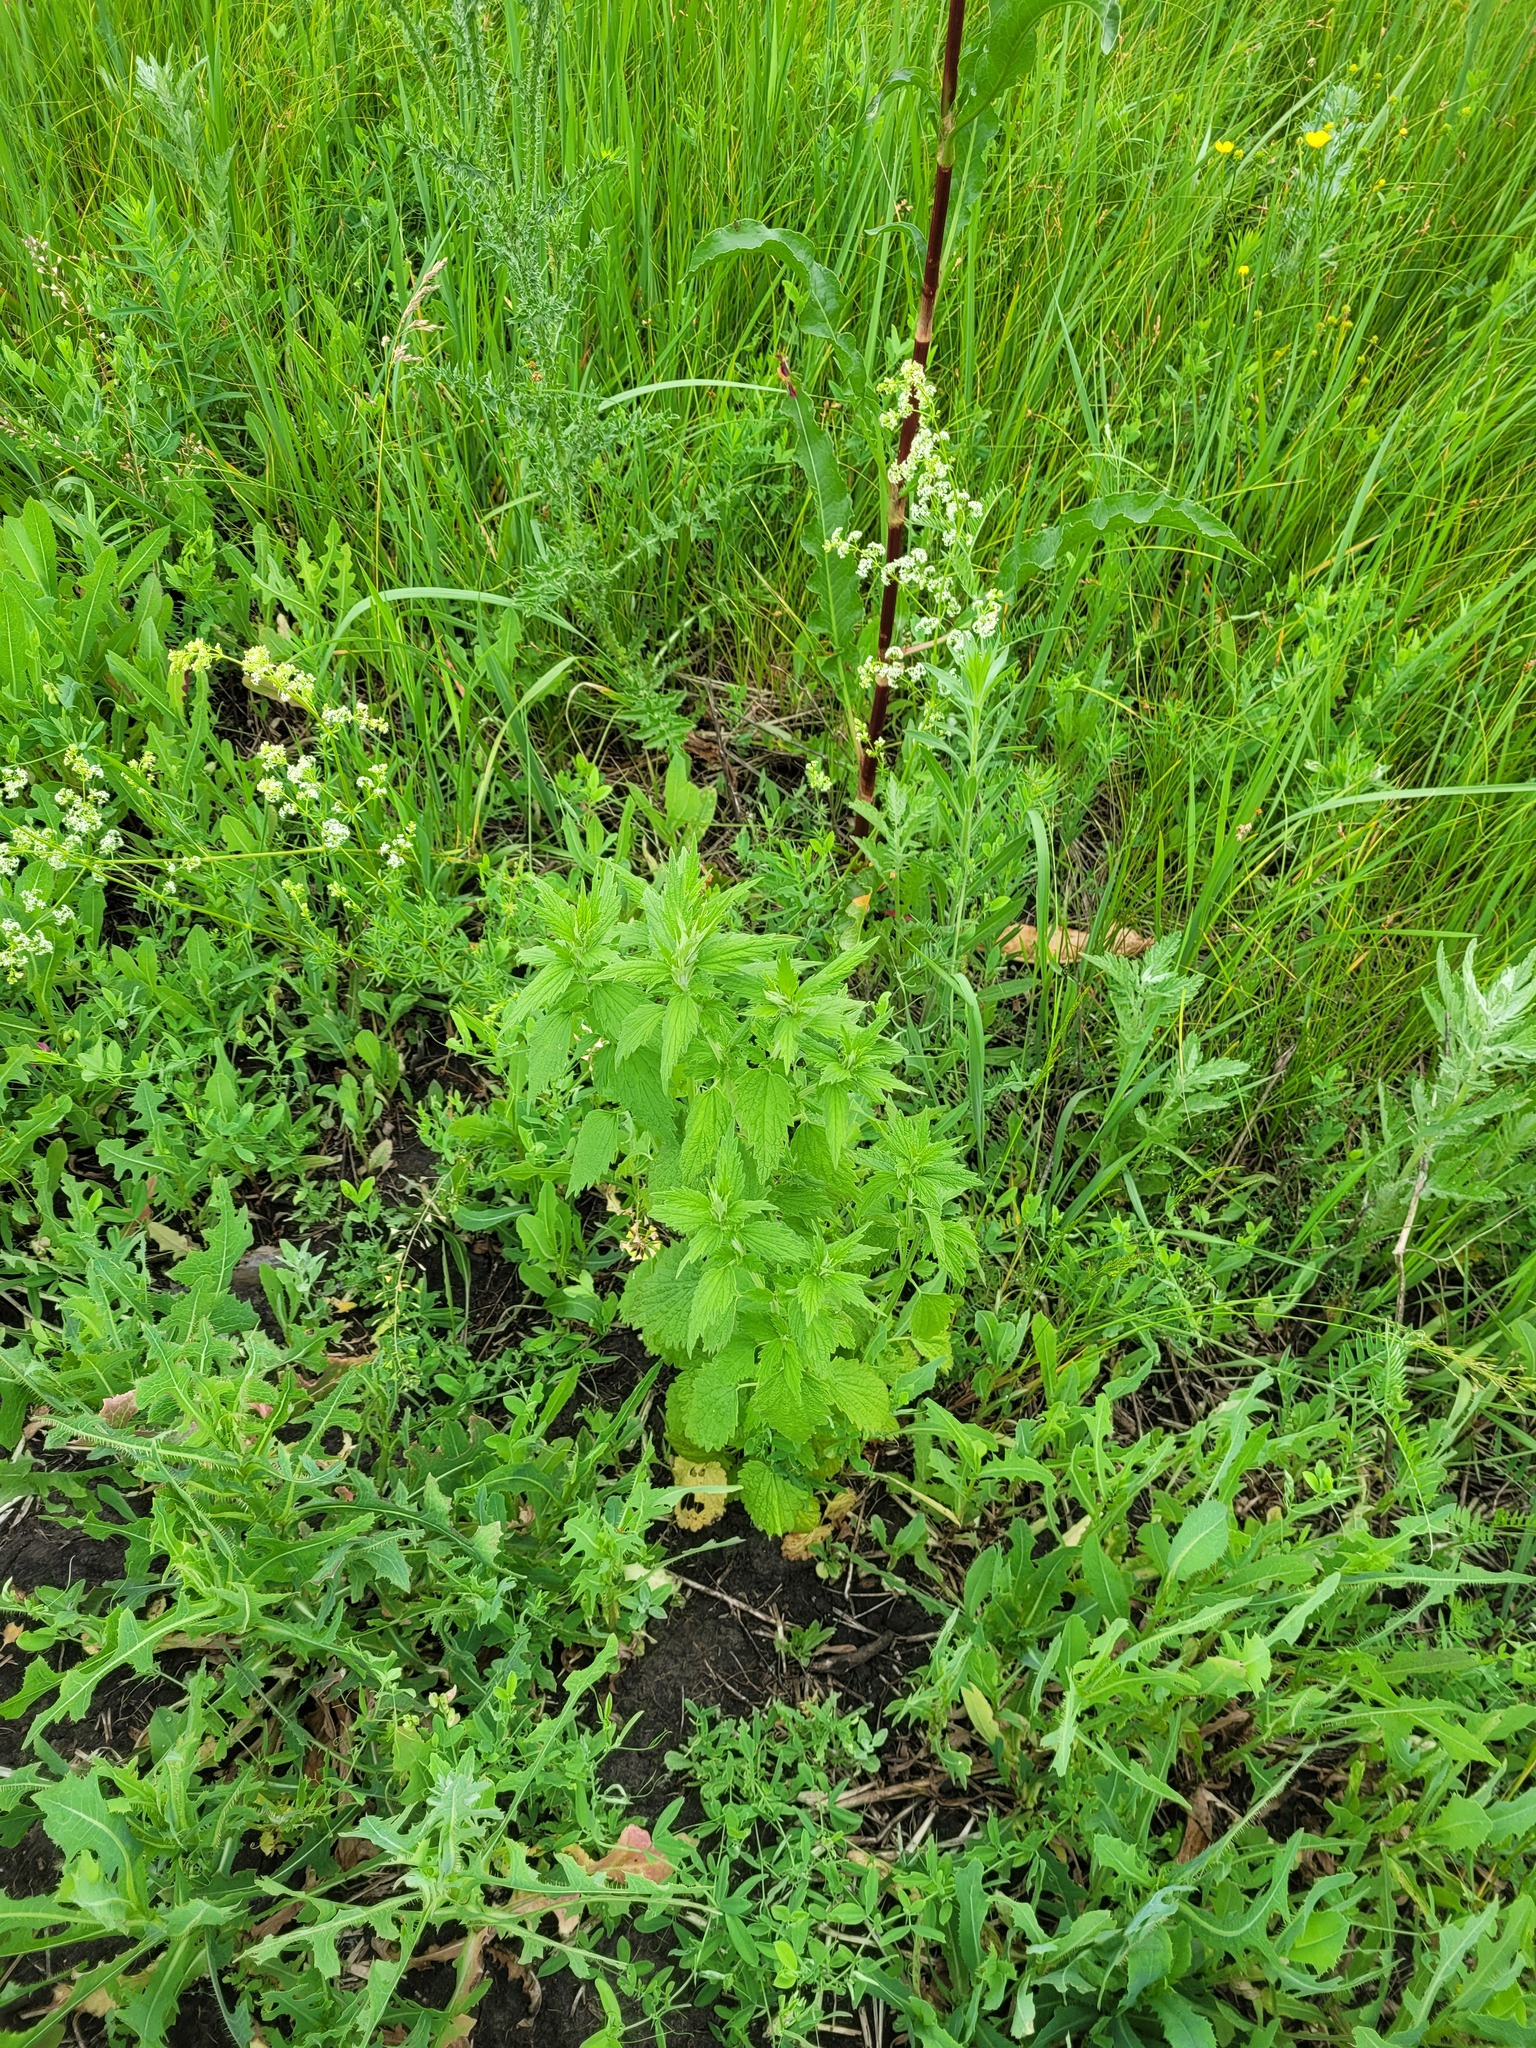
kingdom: Plantae
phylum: Tracheophyta
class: Magnoliopsida
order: Lamiales
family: Lamiaceae
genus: Chaiturus
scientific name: Chaiturus marrubiastrum
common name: Lion's tail
